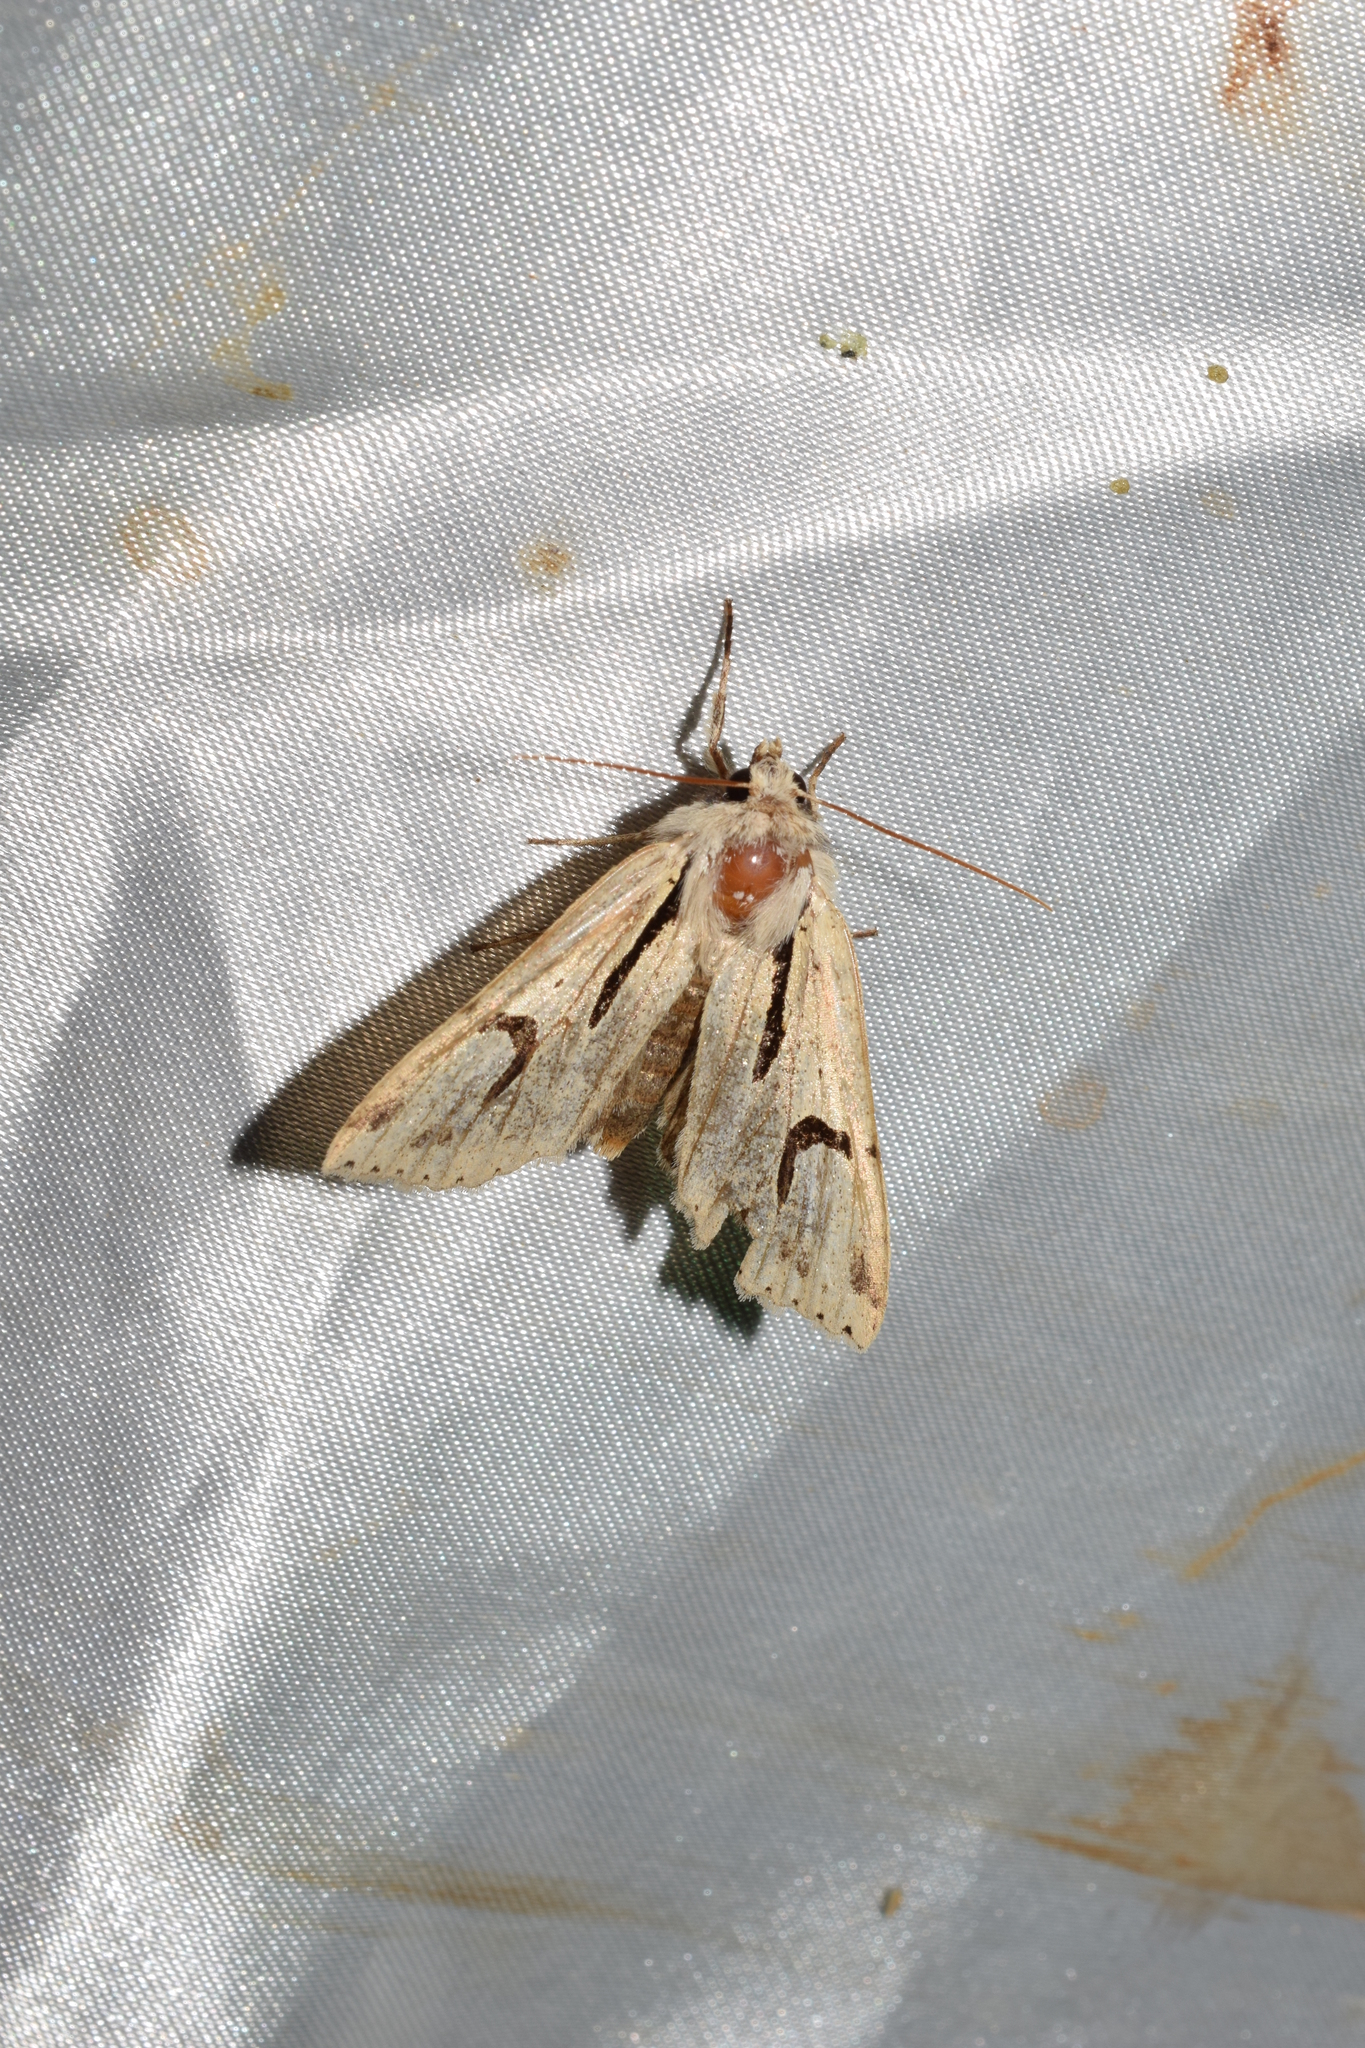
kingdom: Animalia
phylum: Arthropoda
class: Insecta
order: Lepidoptera
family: Noctuidae
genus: Orthosia
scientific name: Orthosia nigromaculata
